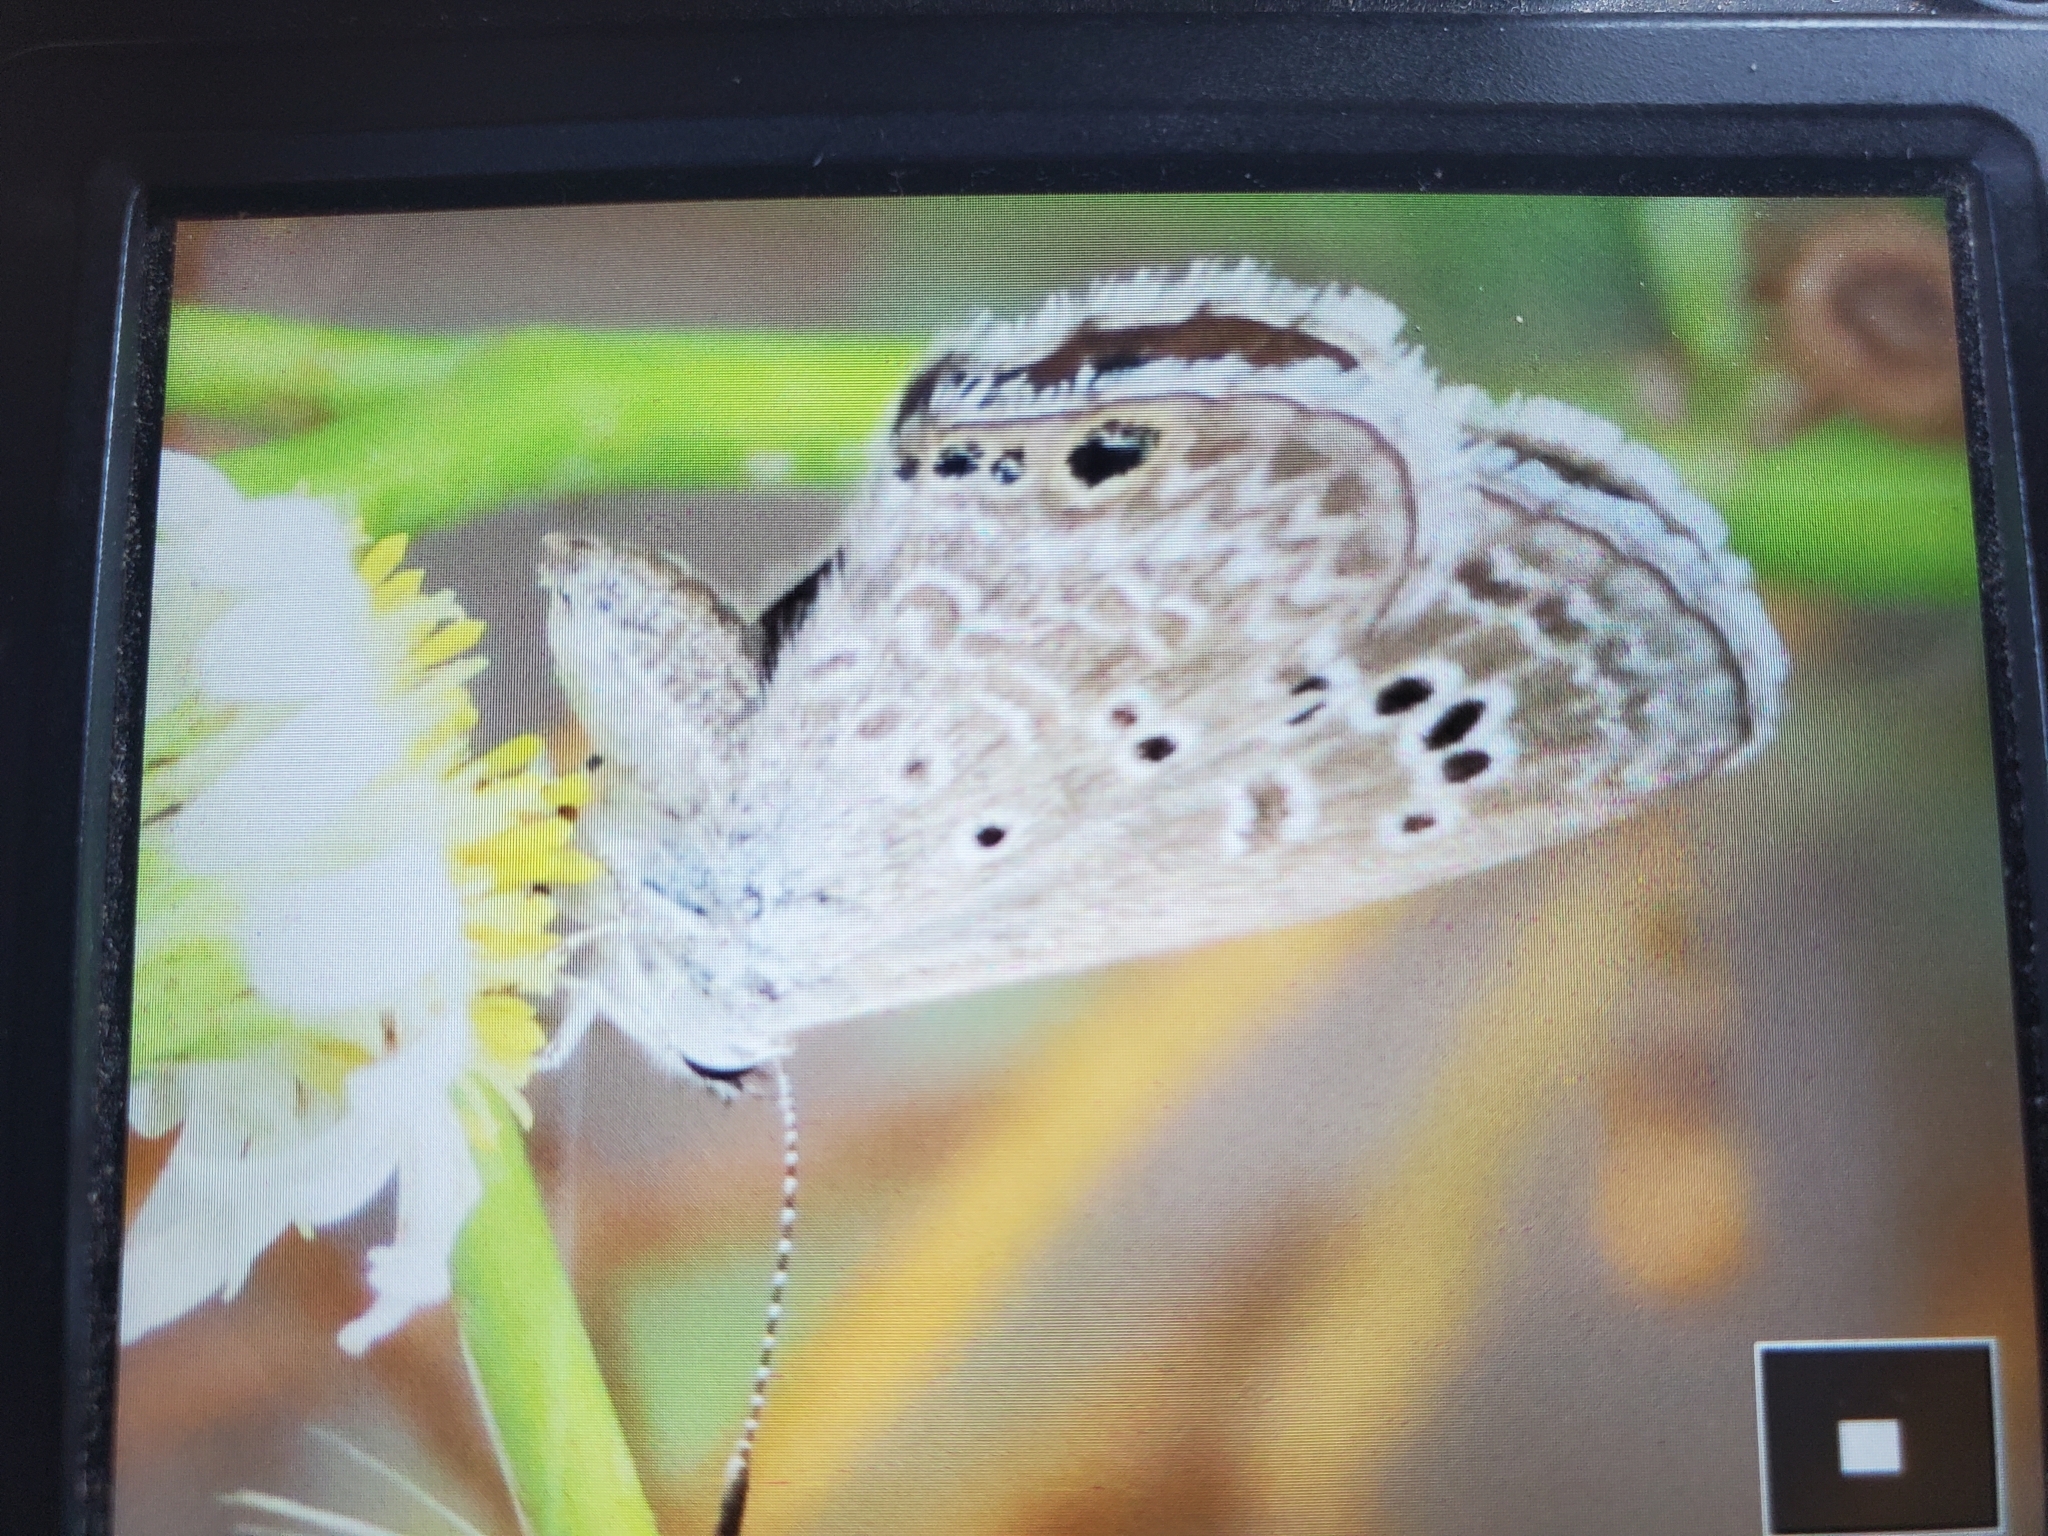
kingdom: Animalia
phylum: Arthropoda
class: Insecta
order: Lepidoptera
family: Lycaenidae
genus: Echinargus
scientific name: Echinargus isola
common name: Reakirt's blue
